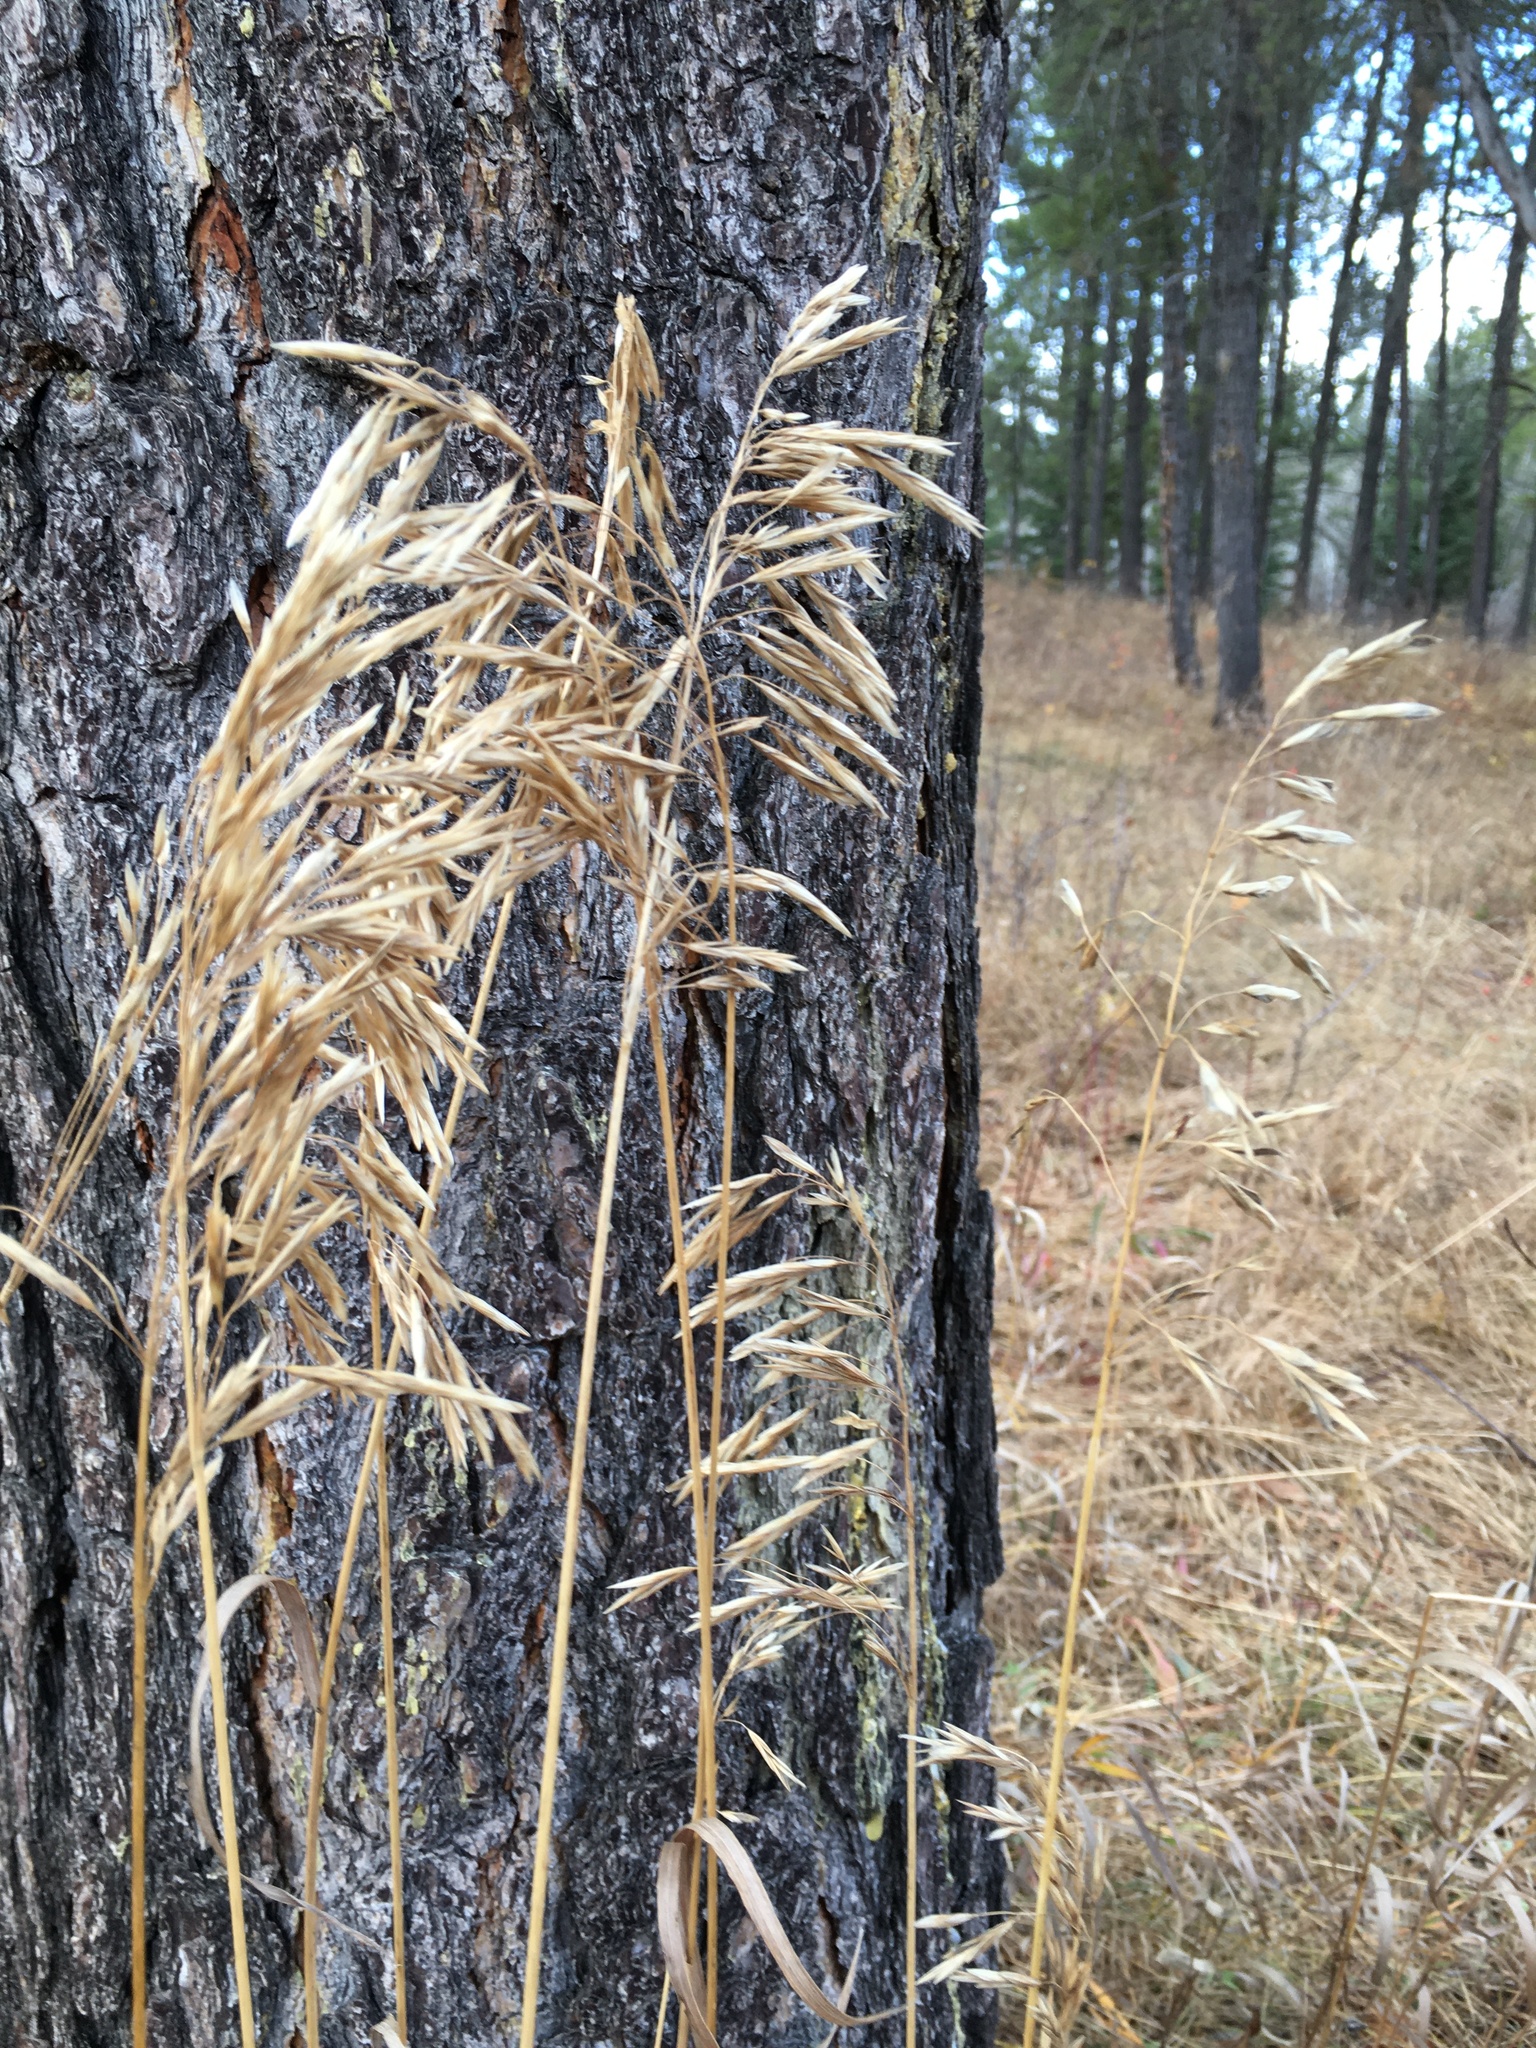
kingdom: Plantae
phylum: Tracheophyta
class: Liliopsida
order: Poales
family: Poaceae
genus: Bromus
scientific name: Bromus inermis
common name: Smooth brome
